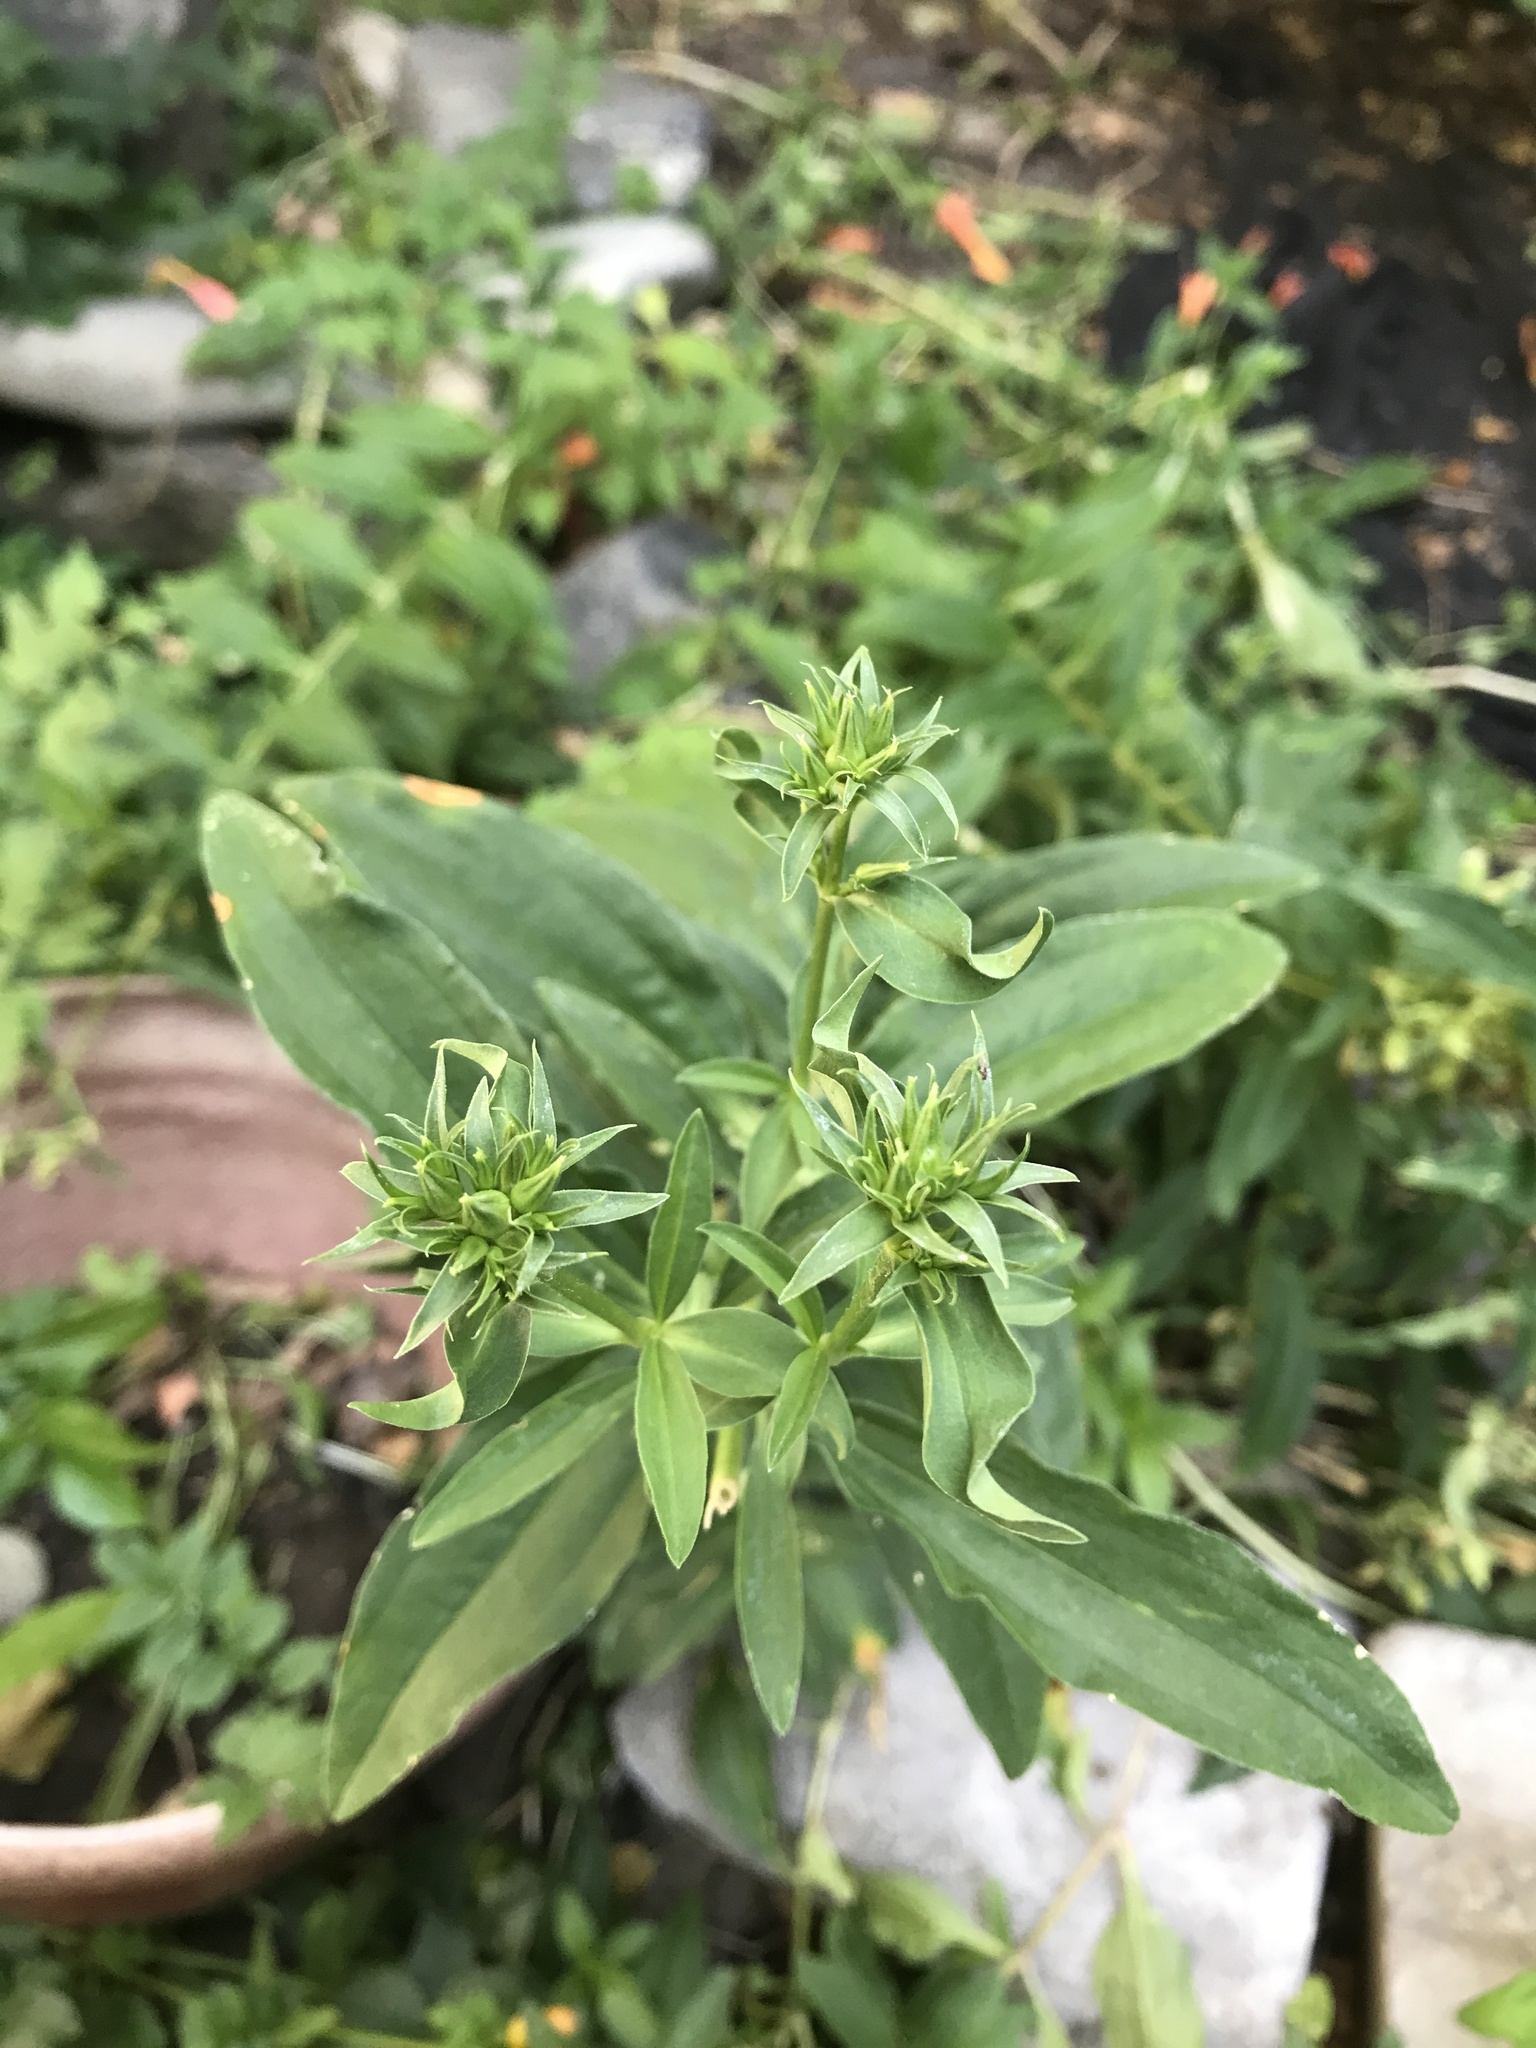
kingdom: Plantae
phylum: Tracheophyta
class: Magnoliopsida
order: Caryophyllales
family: Caryophyllaceae
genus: Saponaria
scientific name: Saponaria officinalis
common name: Soapwort
